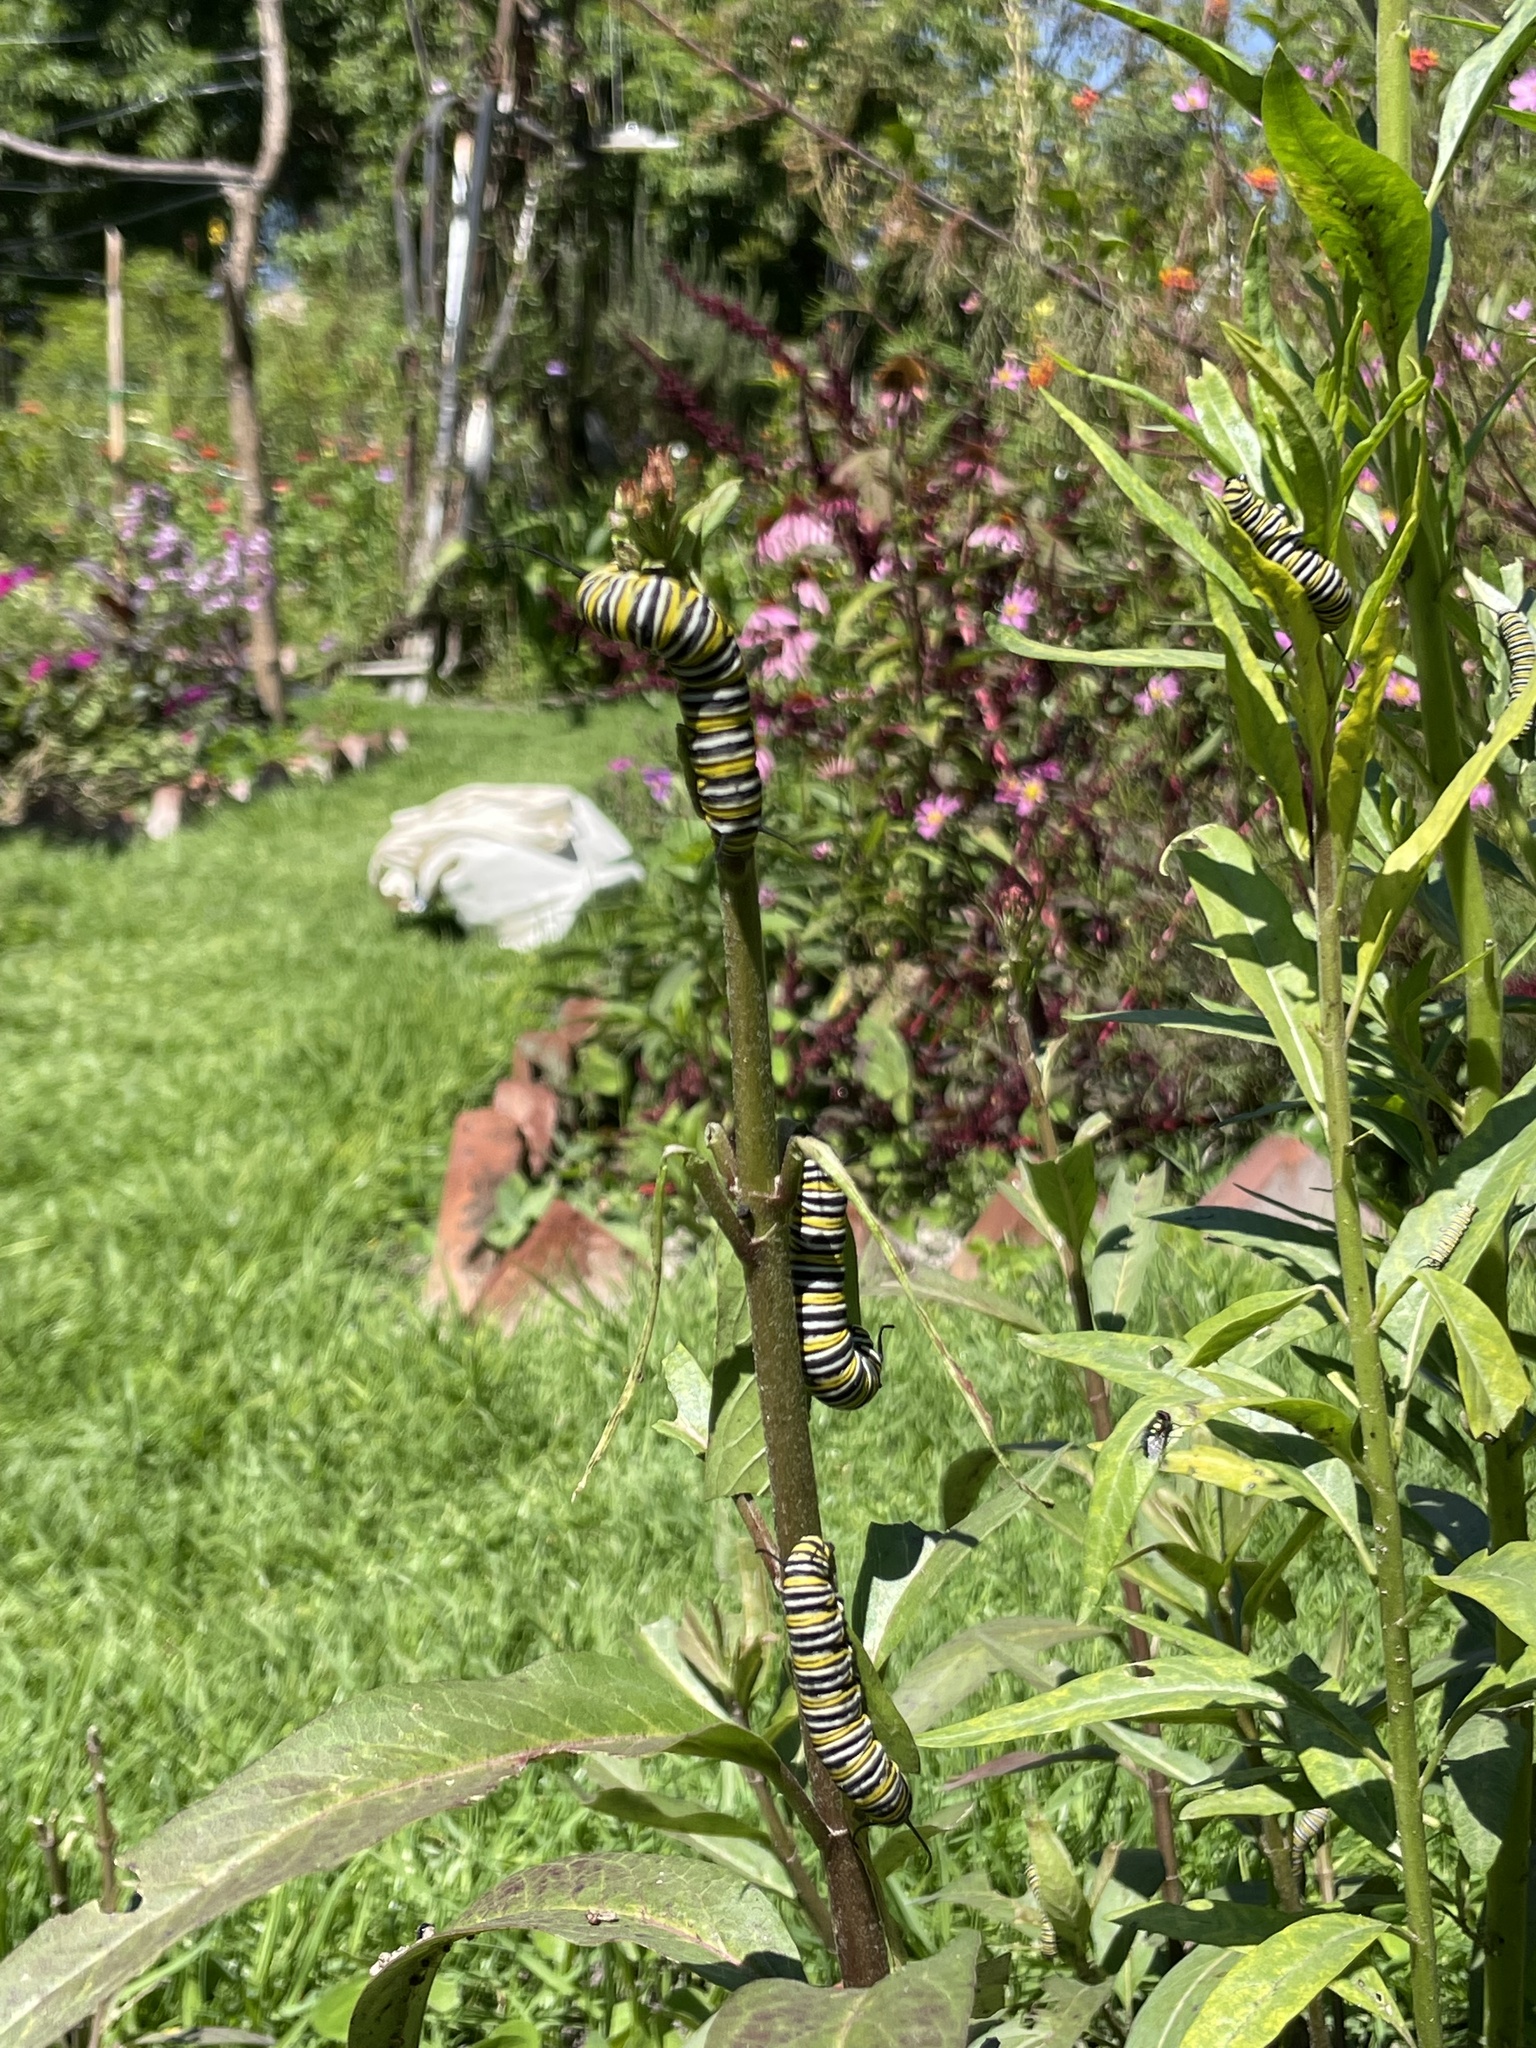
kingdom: Animalia
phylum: Arthropoda
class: Insecta
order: Lepidoptera
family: Nymphalidae
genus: Danaus
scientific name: Danaus plexippus
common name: Monarch
